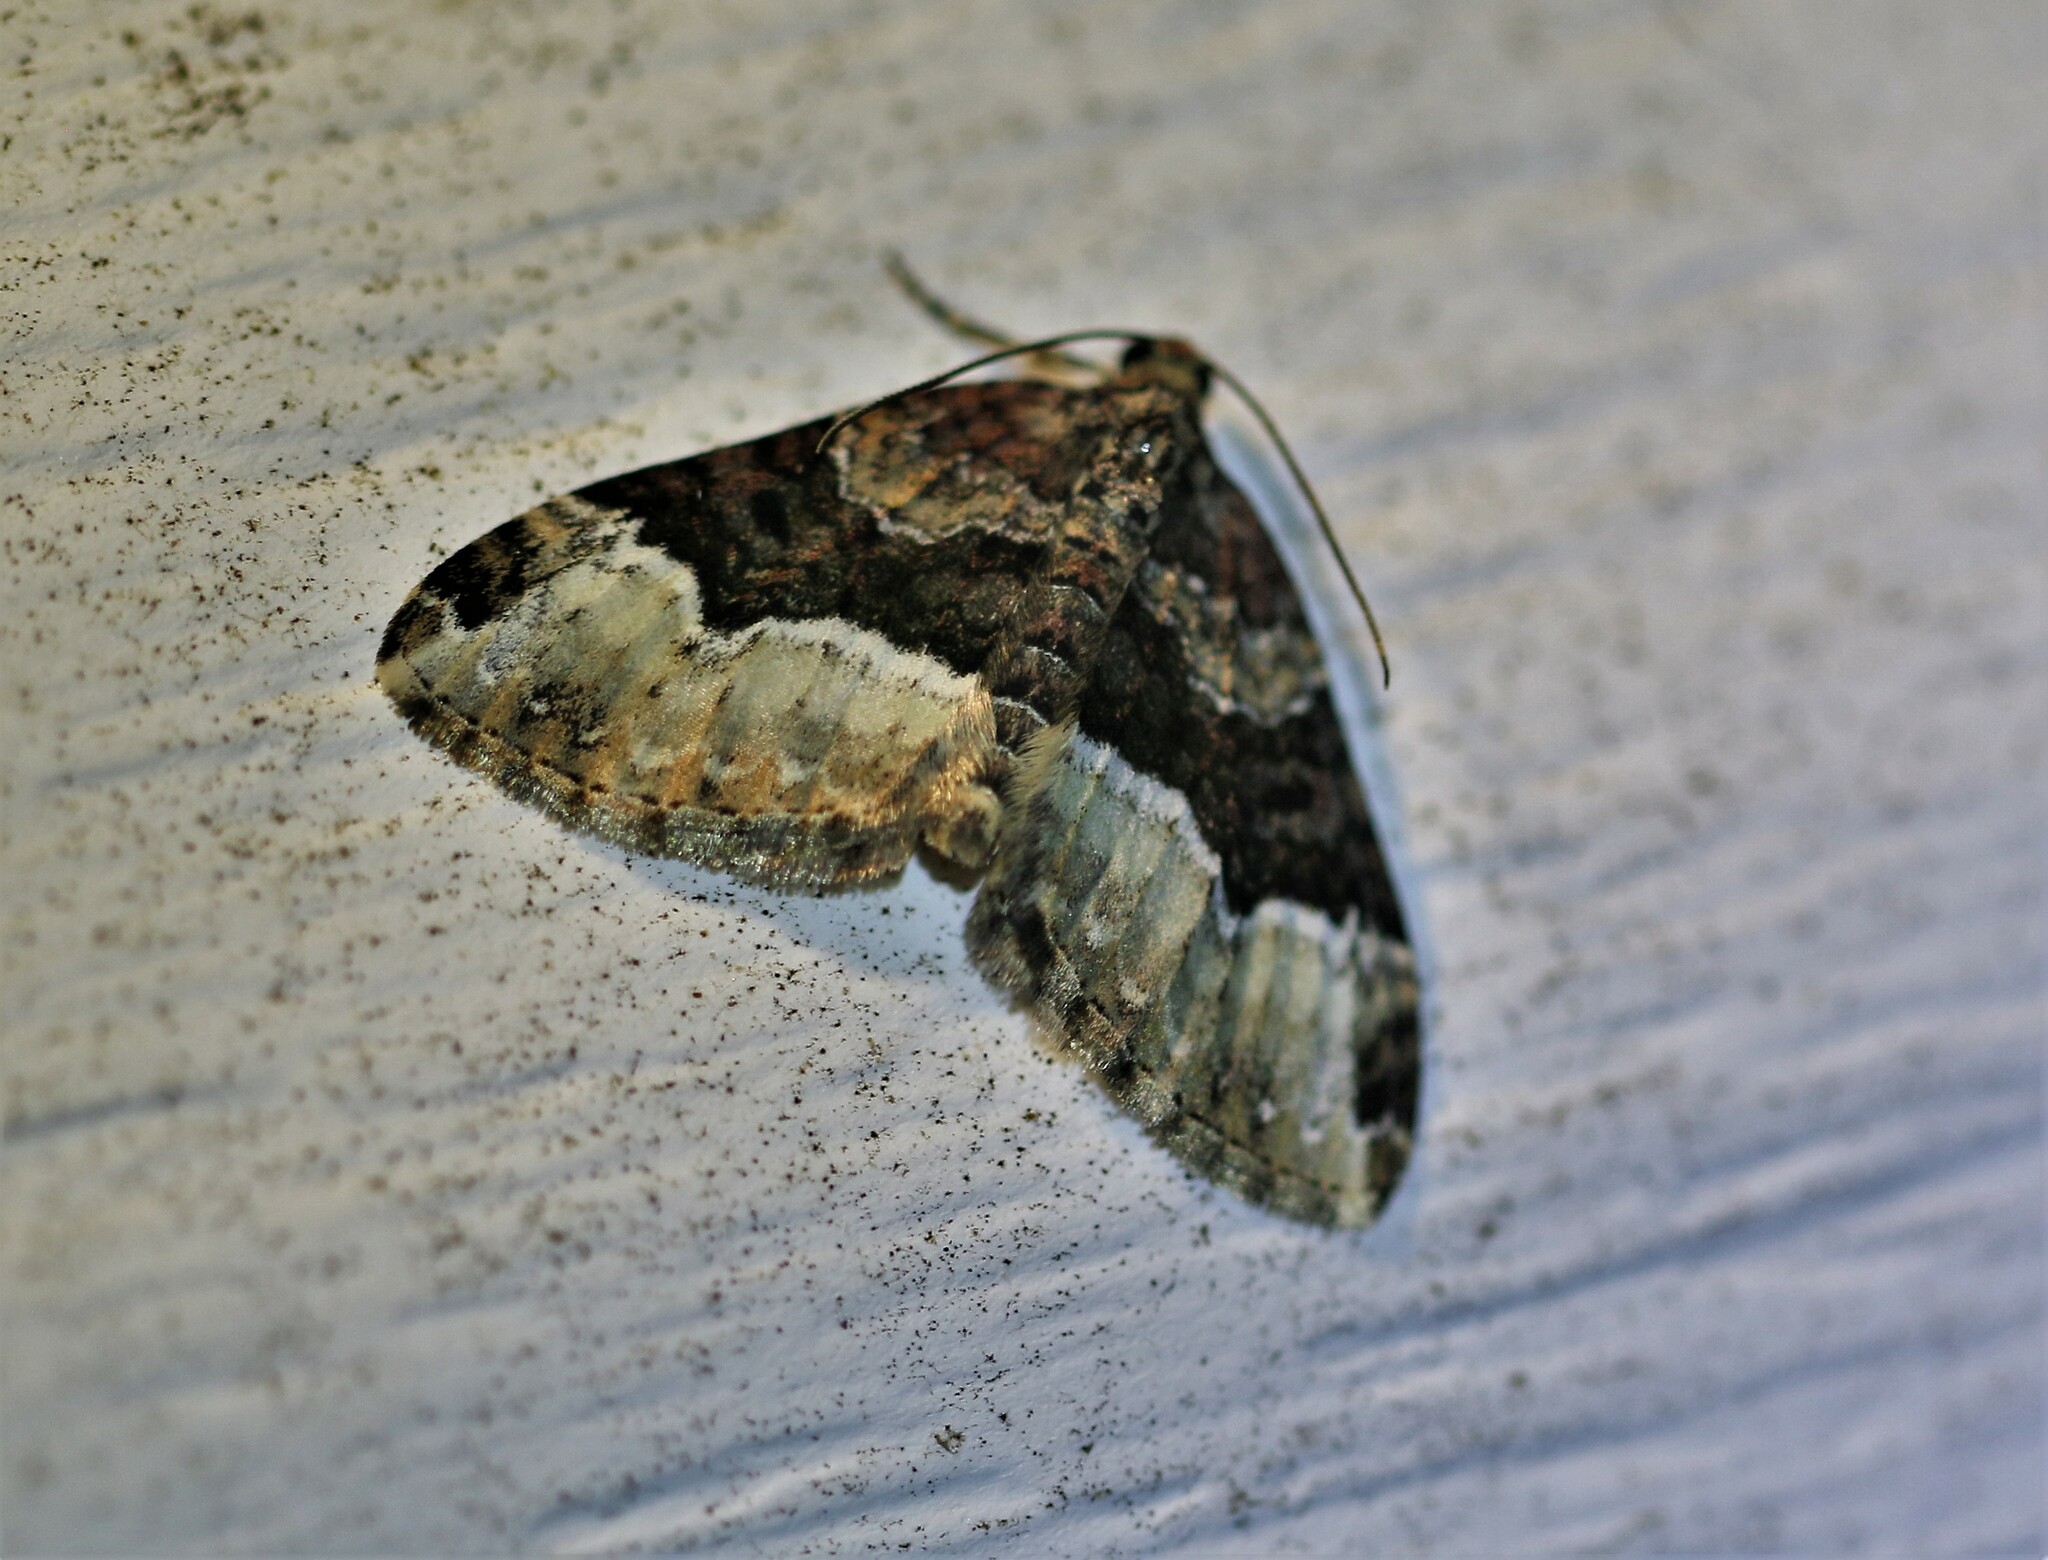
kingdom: Animalia
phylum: Arthropoda
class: Insecta
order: Lepidoptera
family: Geometridae
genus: Euphyia
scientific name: Euphyia intermediata
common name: Sharp-angled carpet
